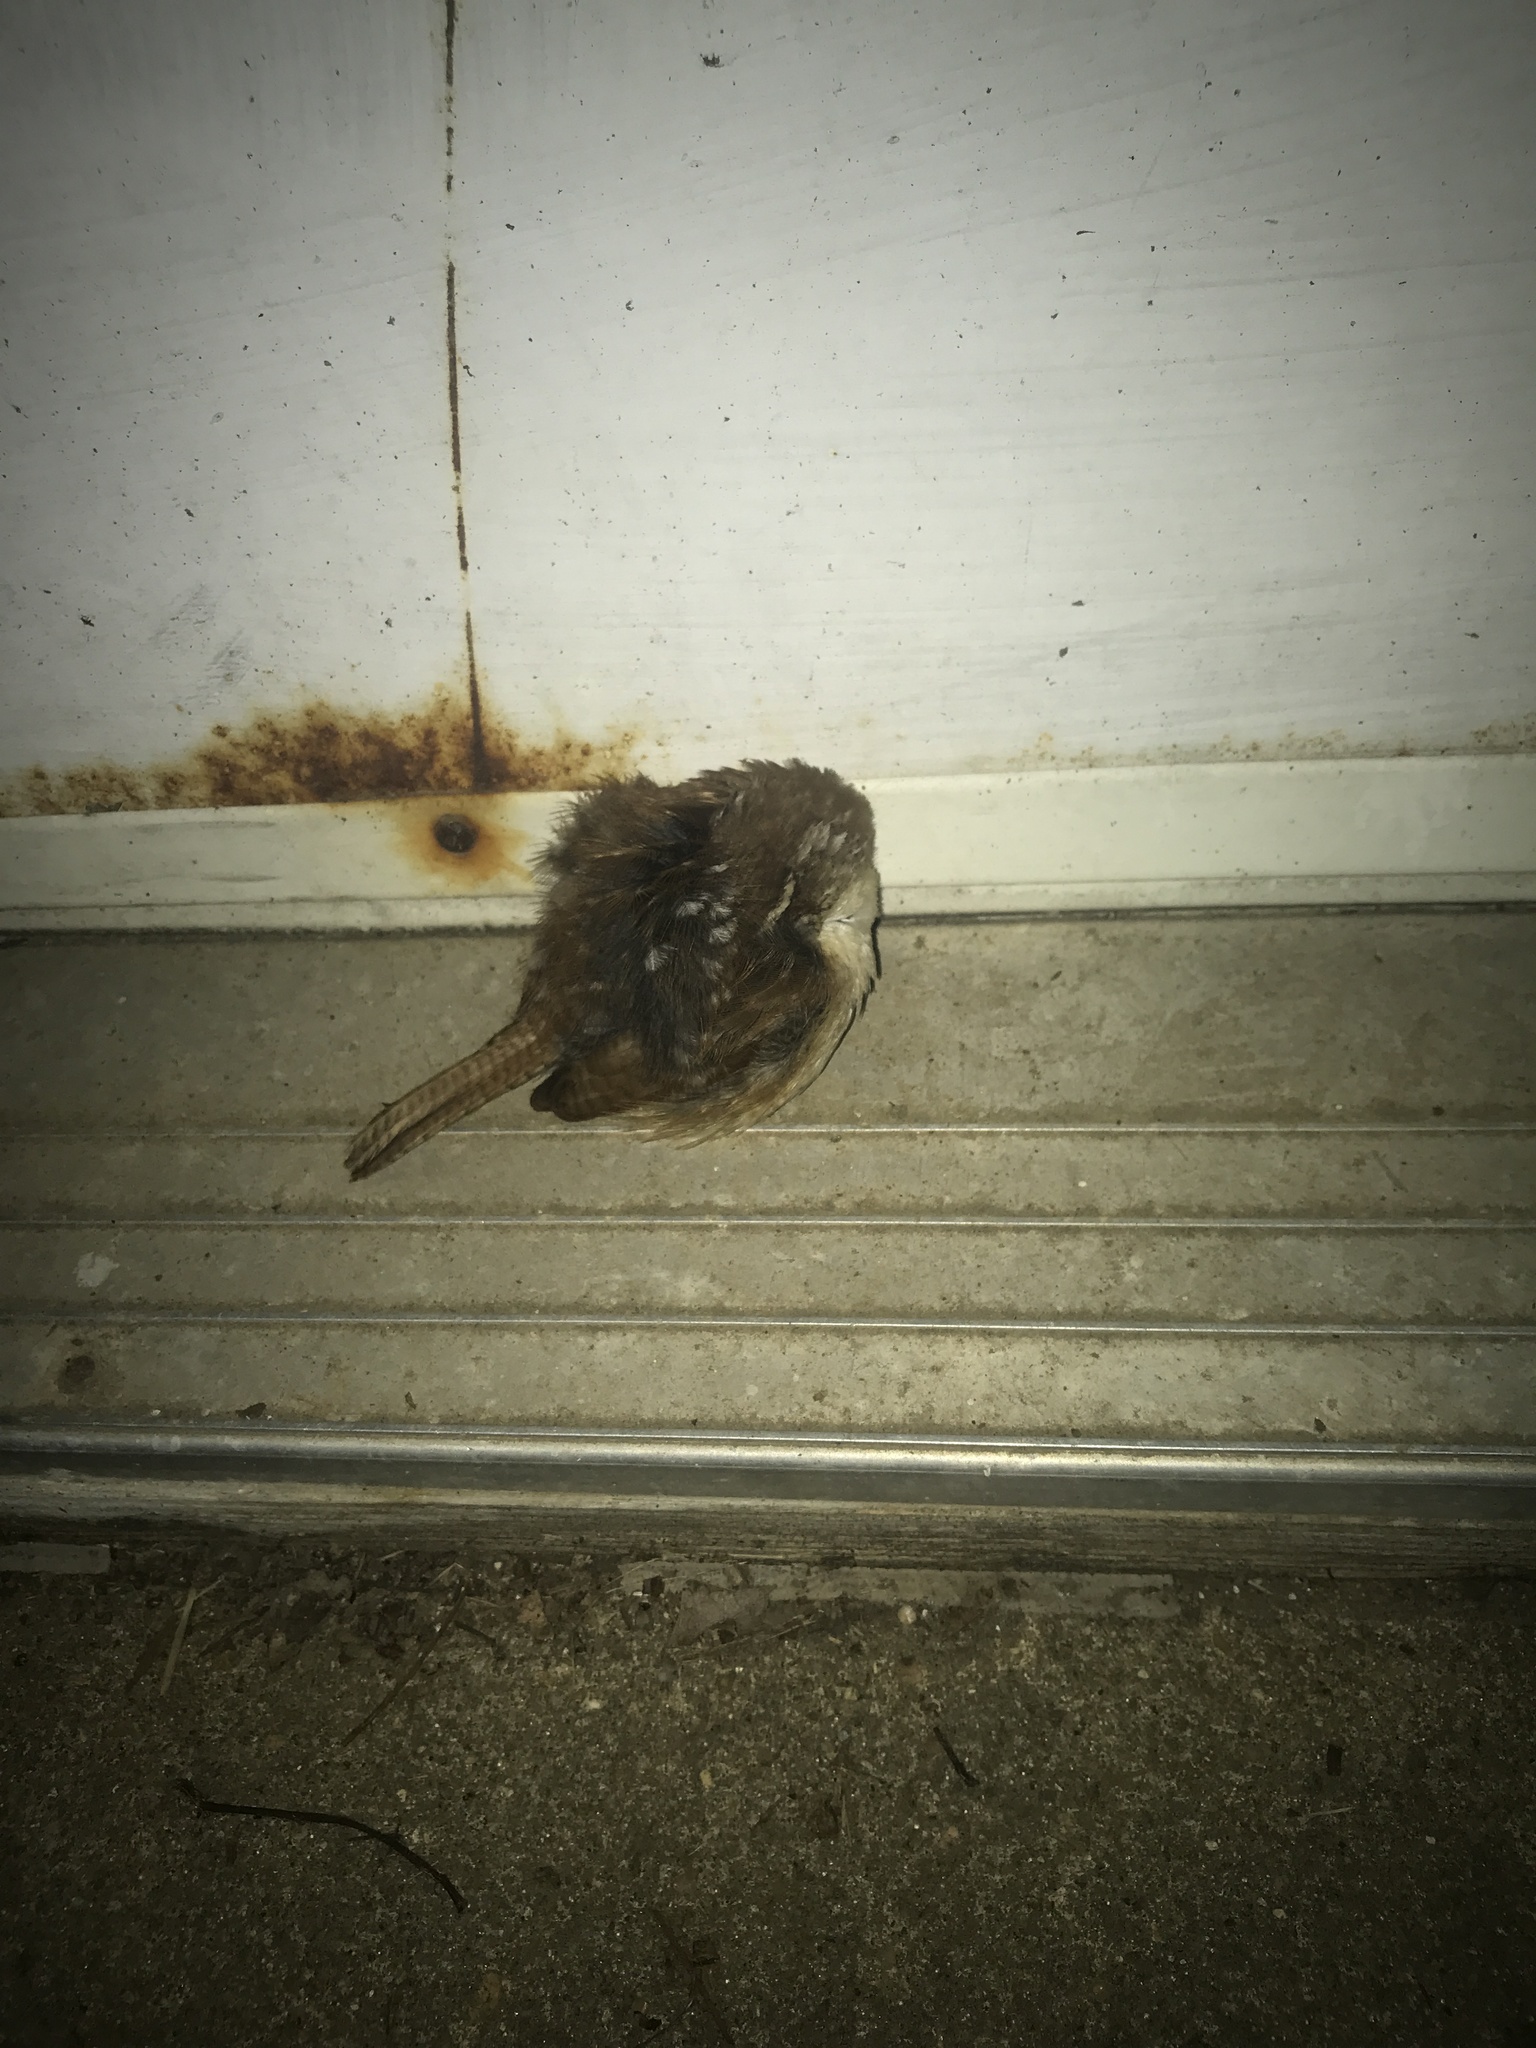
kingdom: Animalia
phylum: Chordata
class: Aves
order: Passeriformes
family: Troglodytidae
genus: Thryothorus
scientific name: Thryothorus ludovicianus
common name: Carolina wren
